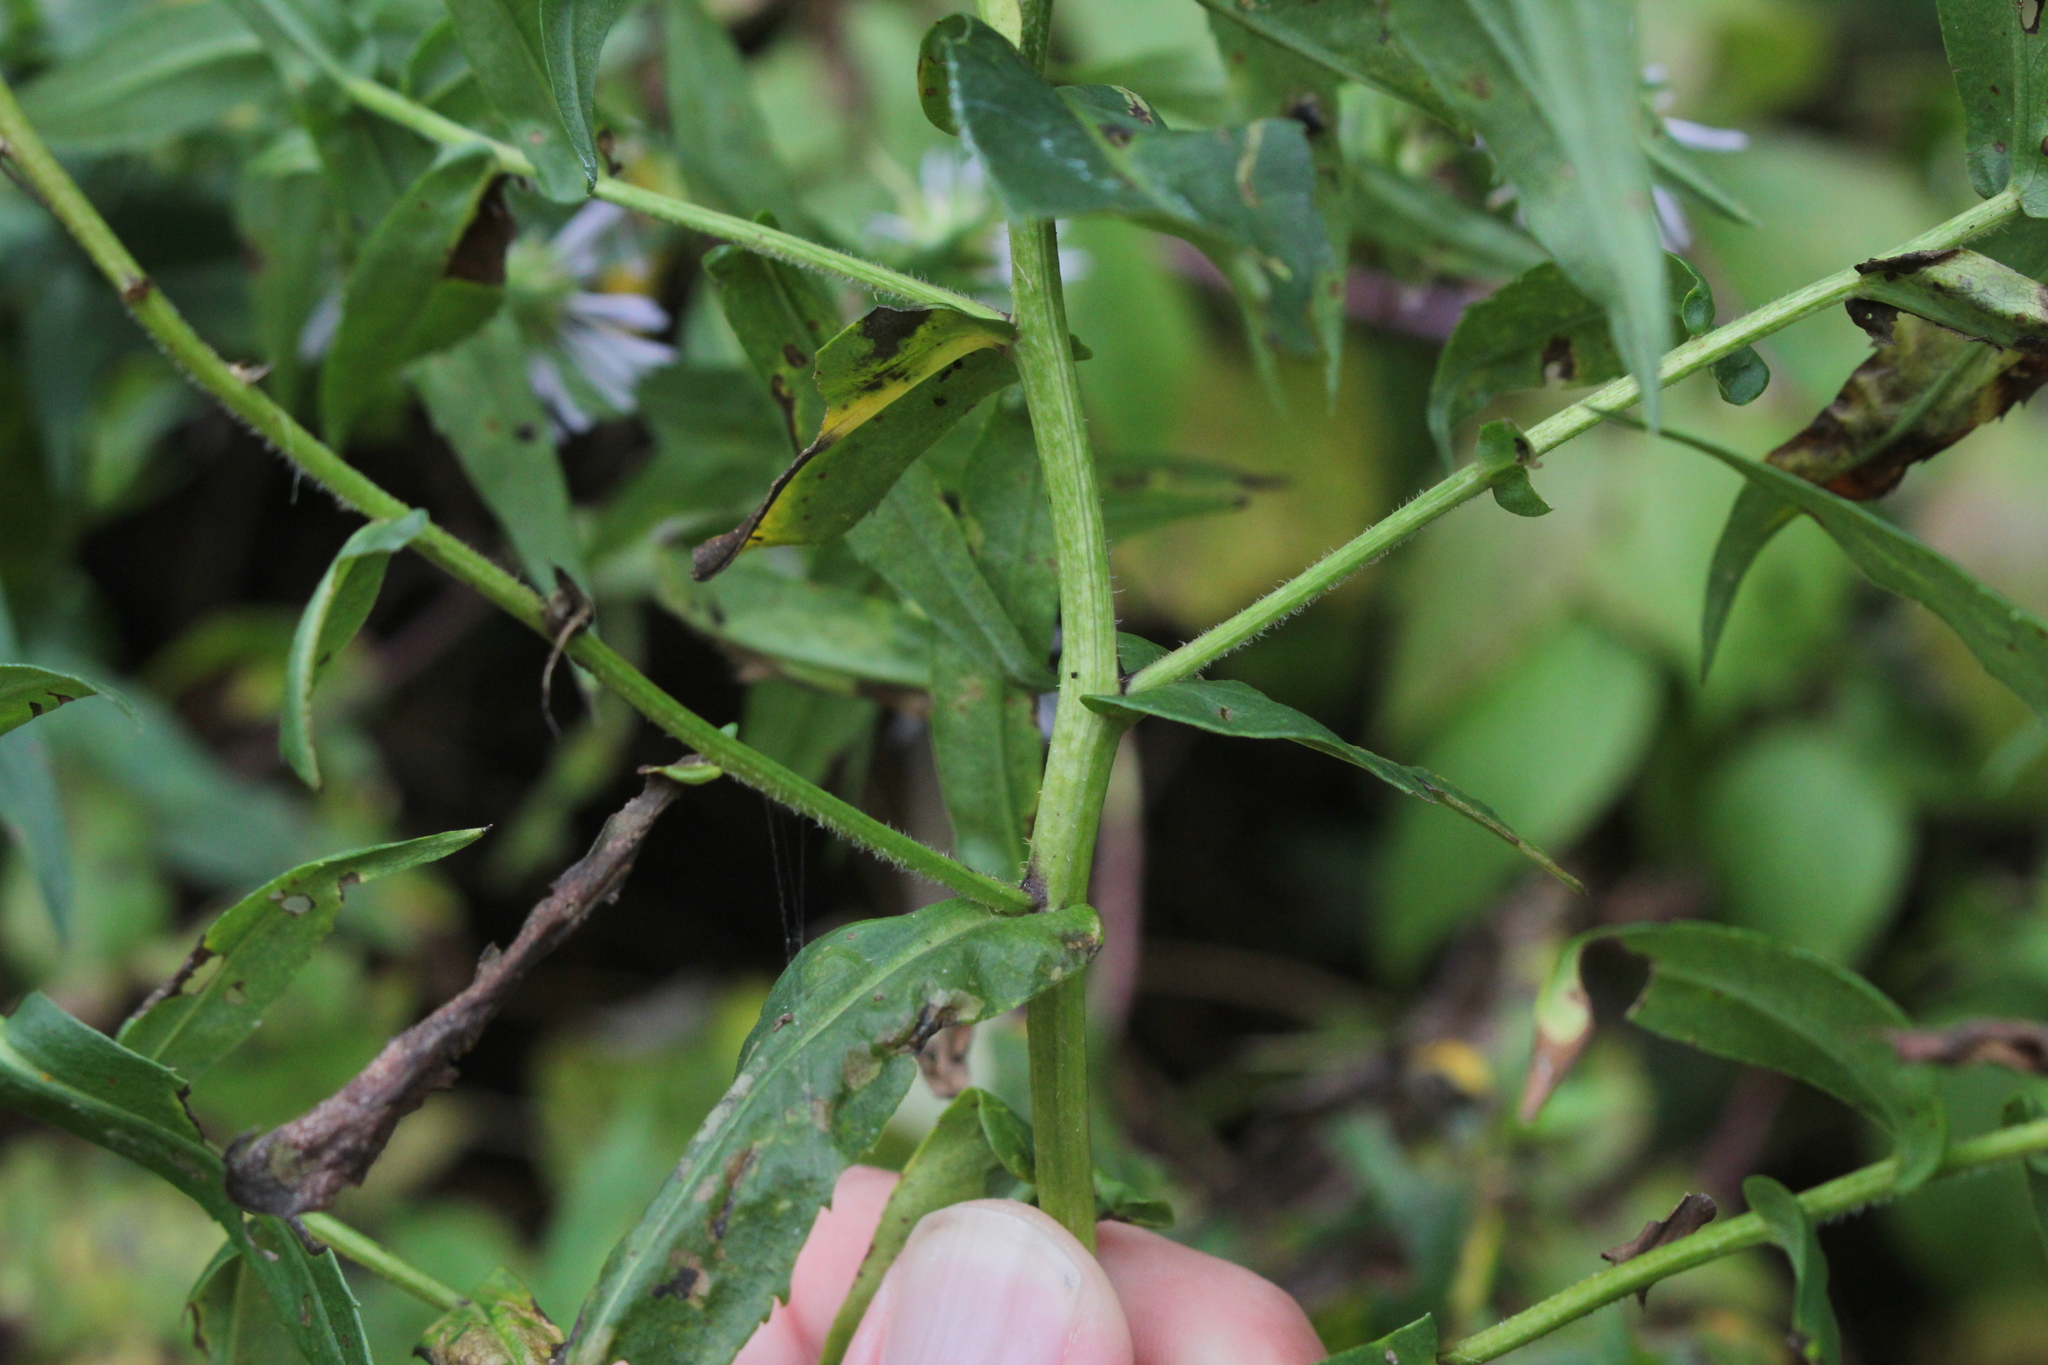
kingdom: Plantae
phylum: Tracheophyta
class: Magnoliopsida
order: Asterales
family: Asteraceae
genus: Symphyotrichum
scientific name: Symphyotrichum firmum
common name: Shining aster
